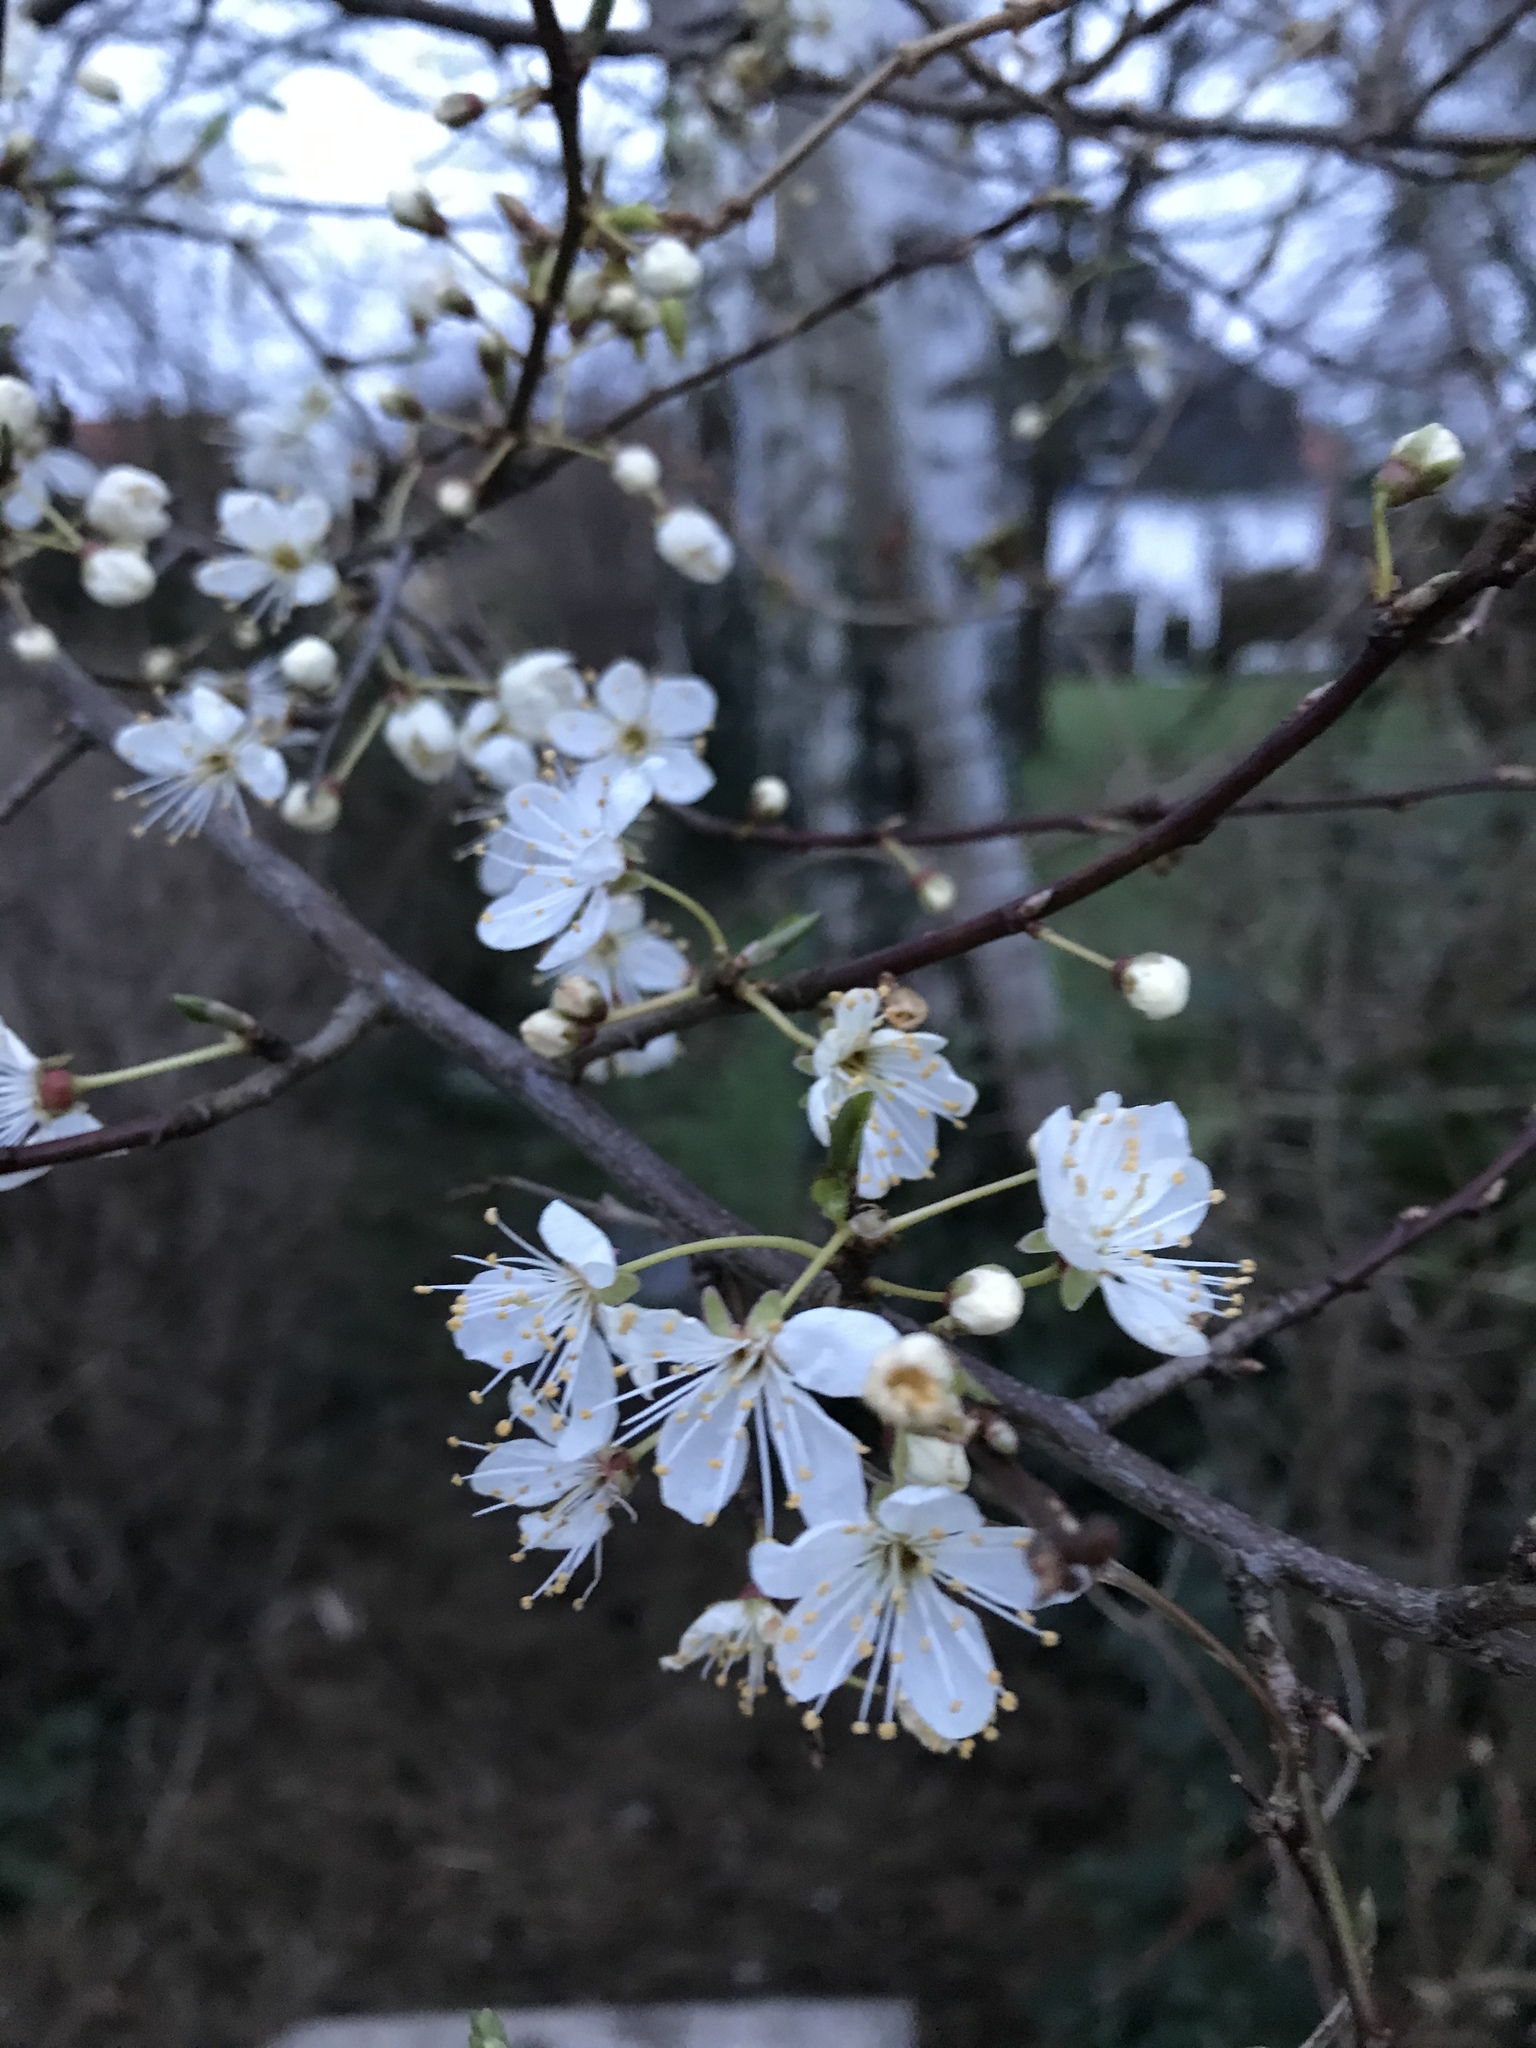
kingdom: Plantae
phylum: Tracheophyta
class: Magnoliopsida
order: Rosales
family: Rosaceae
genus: Prunus
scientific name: Prunus cerasifera
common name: Cherry plum
